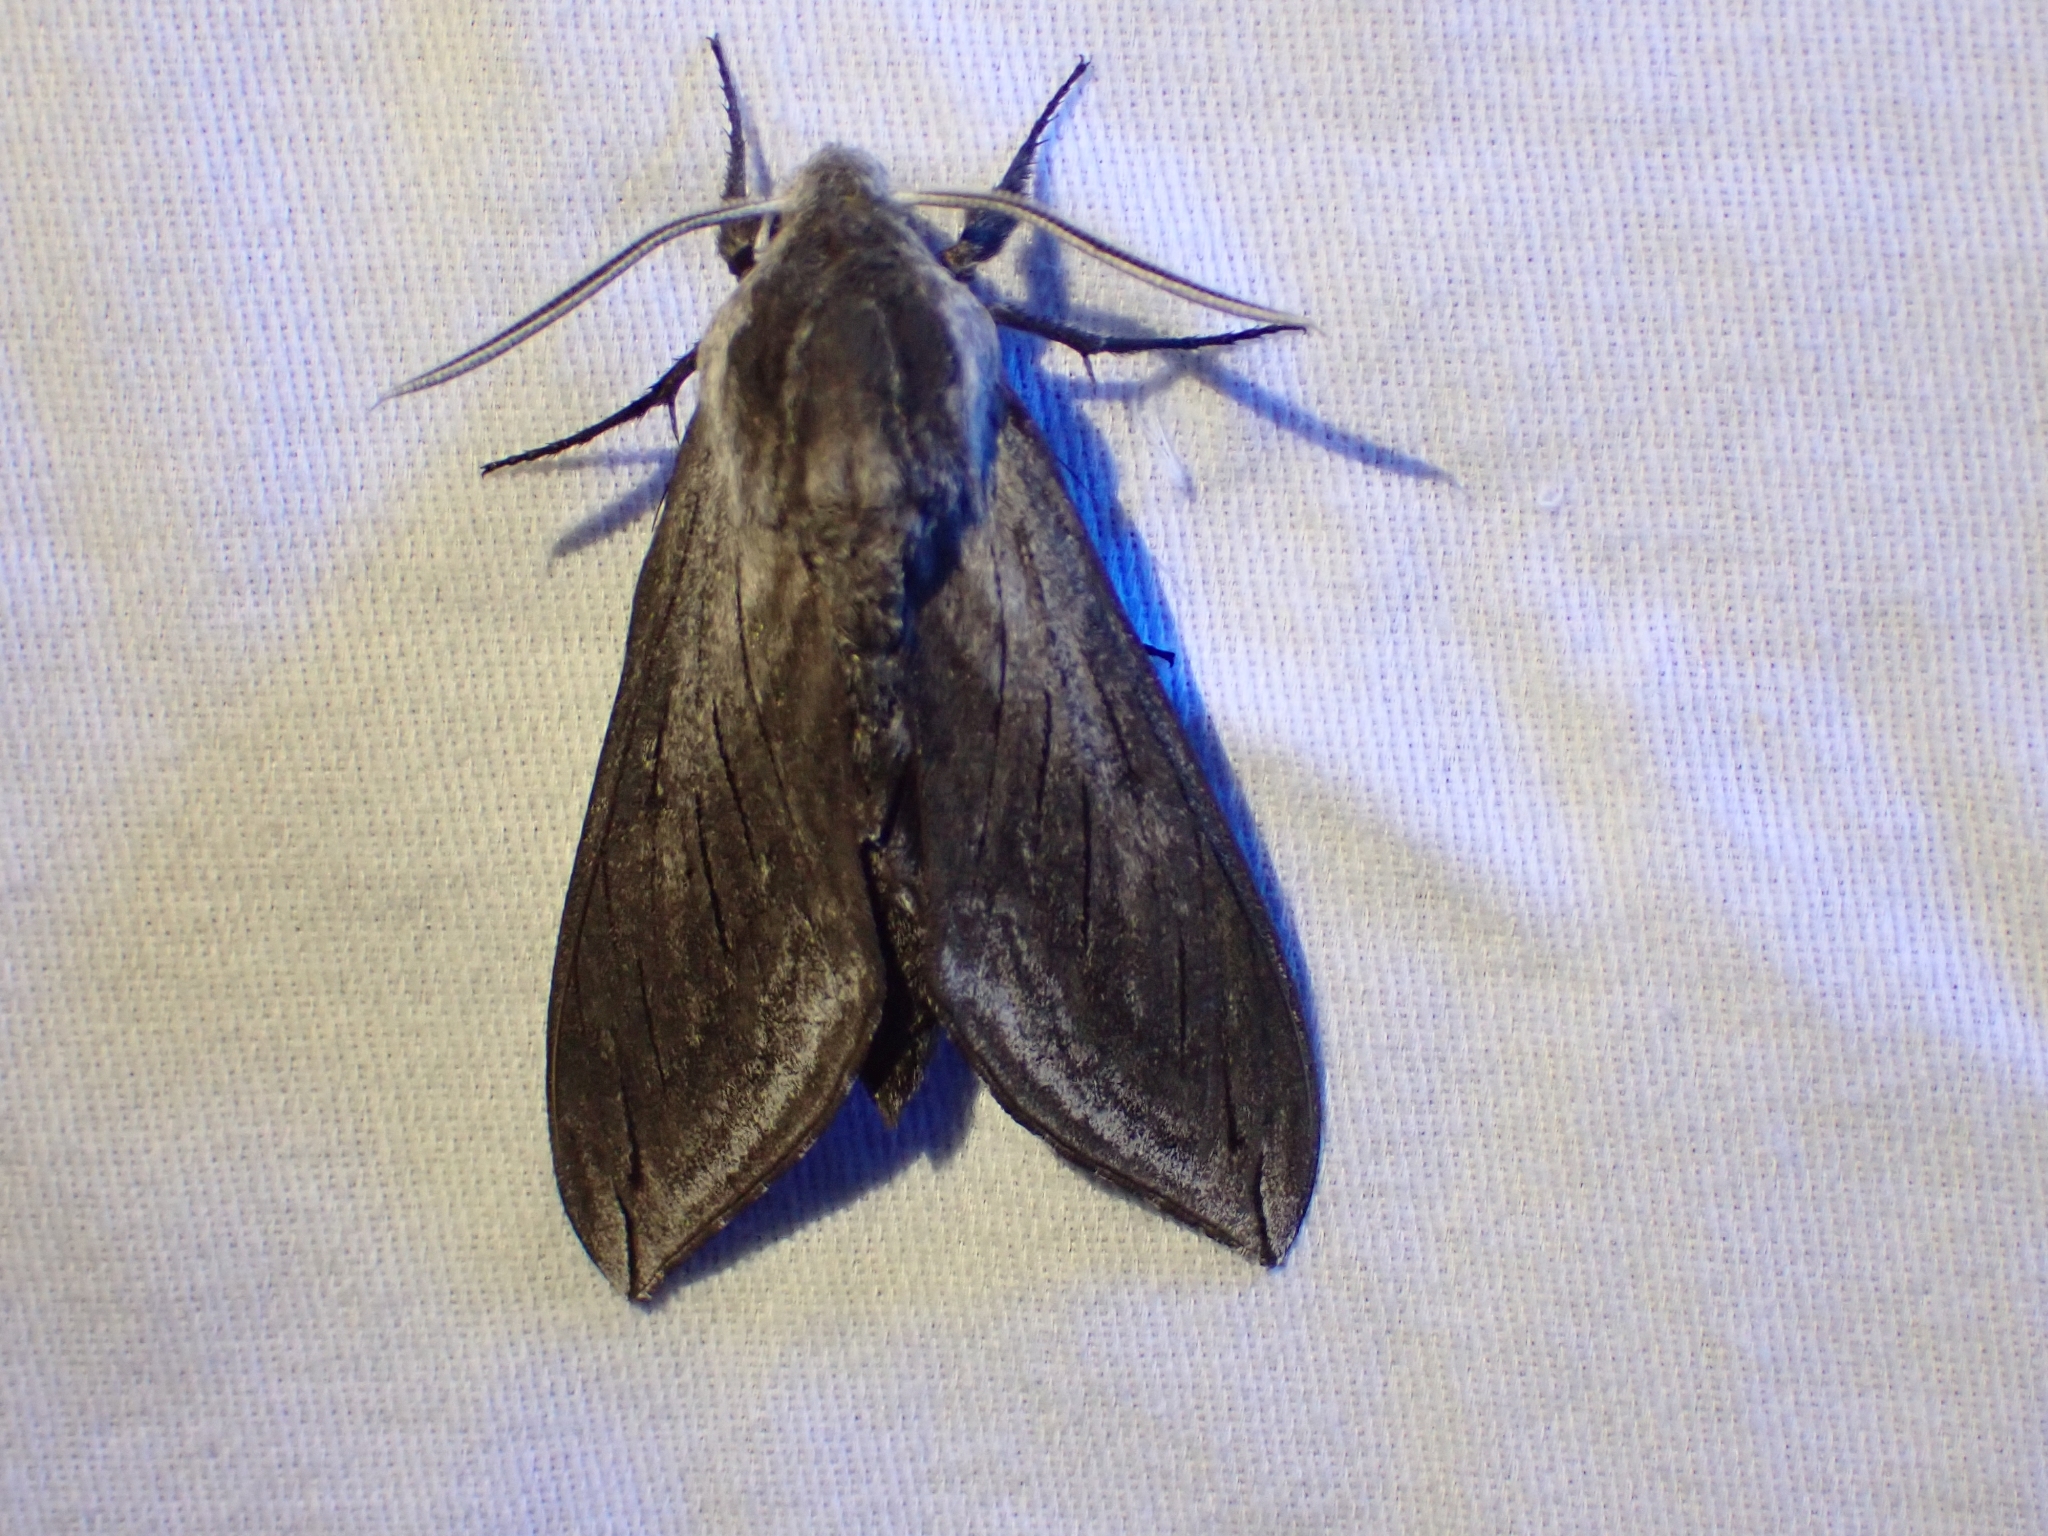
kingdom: Animalia
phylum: Arthropoda
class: Insecta
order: Lepidoptera
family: Sphingidae
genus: Sphinx
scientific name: Sphinx perelegans
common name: Elegant sphinx
